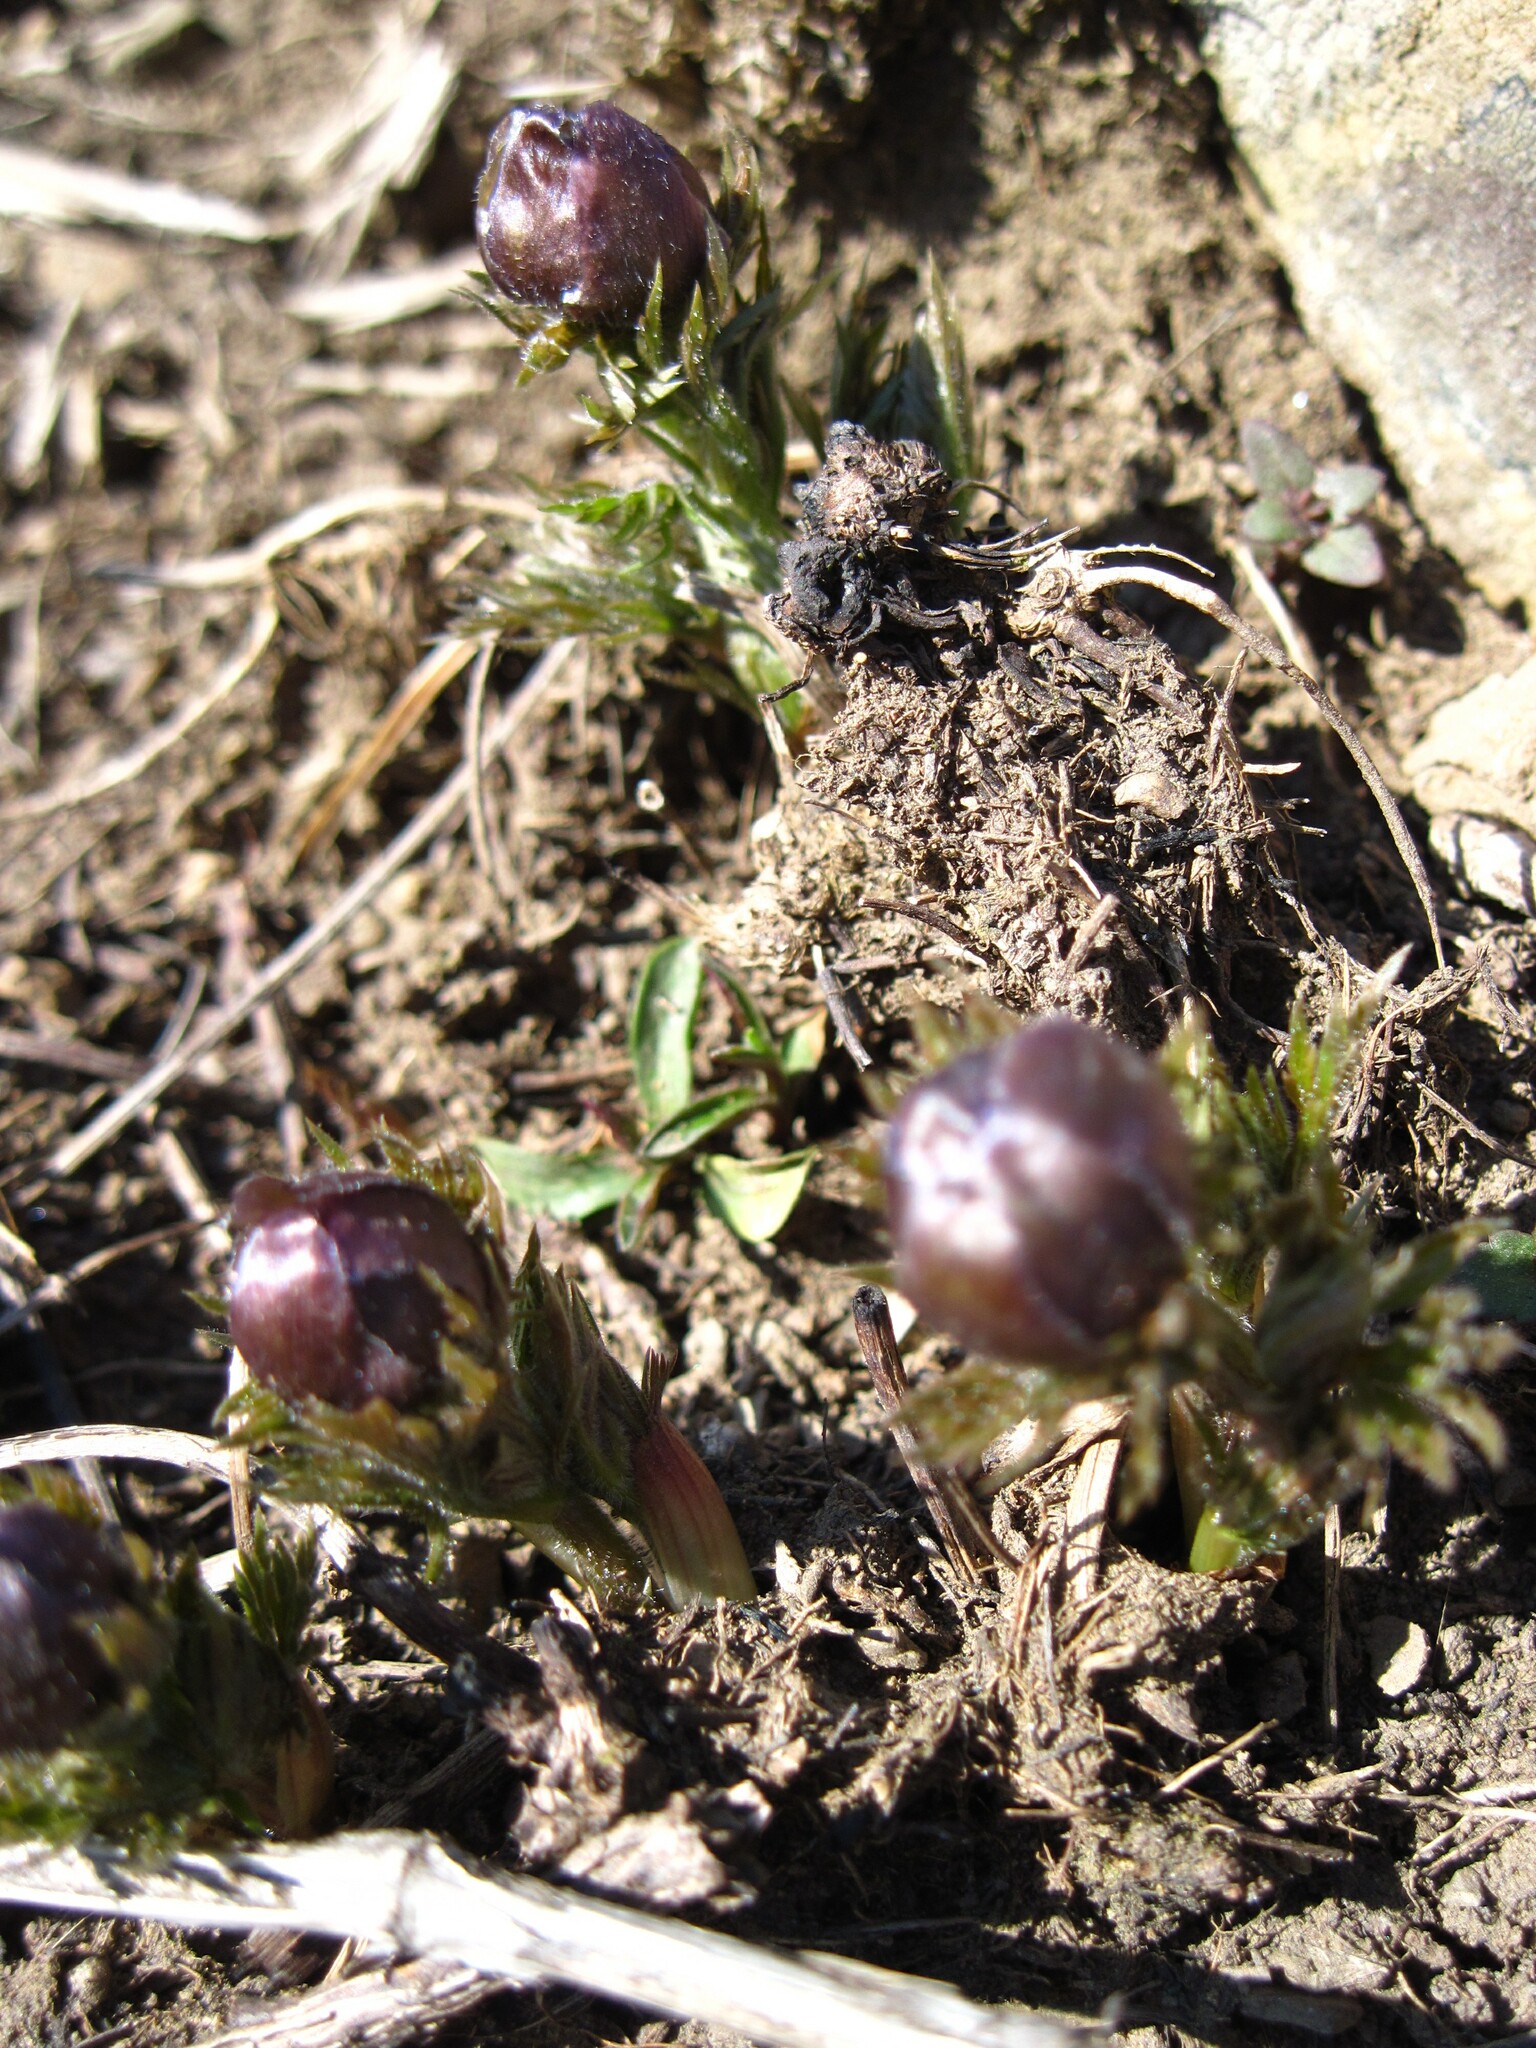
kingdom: Plantae
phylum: Tracheophyta
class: Magnoliopsida
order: Ranunculales
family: Ranunculaceae
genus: Adonis
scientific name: Adonis volgensis
